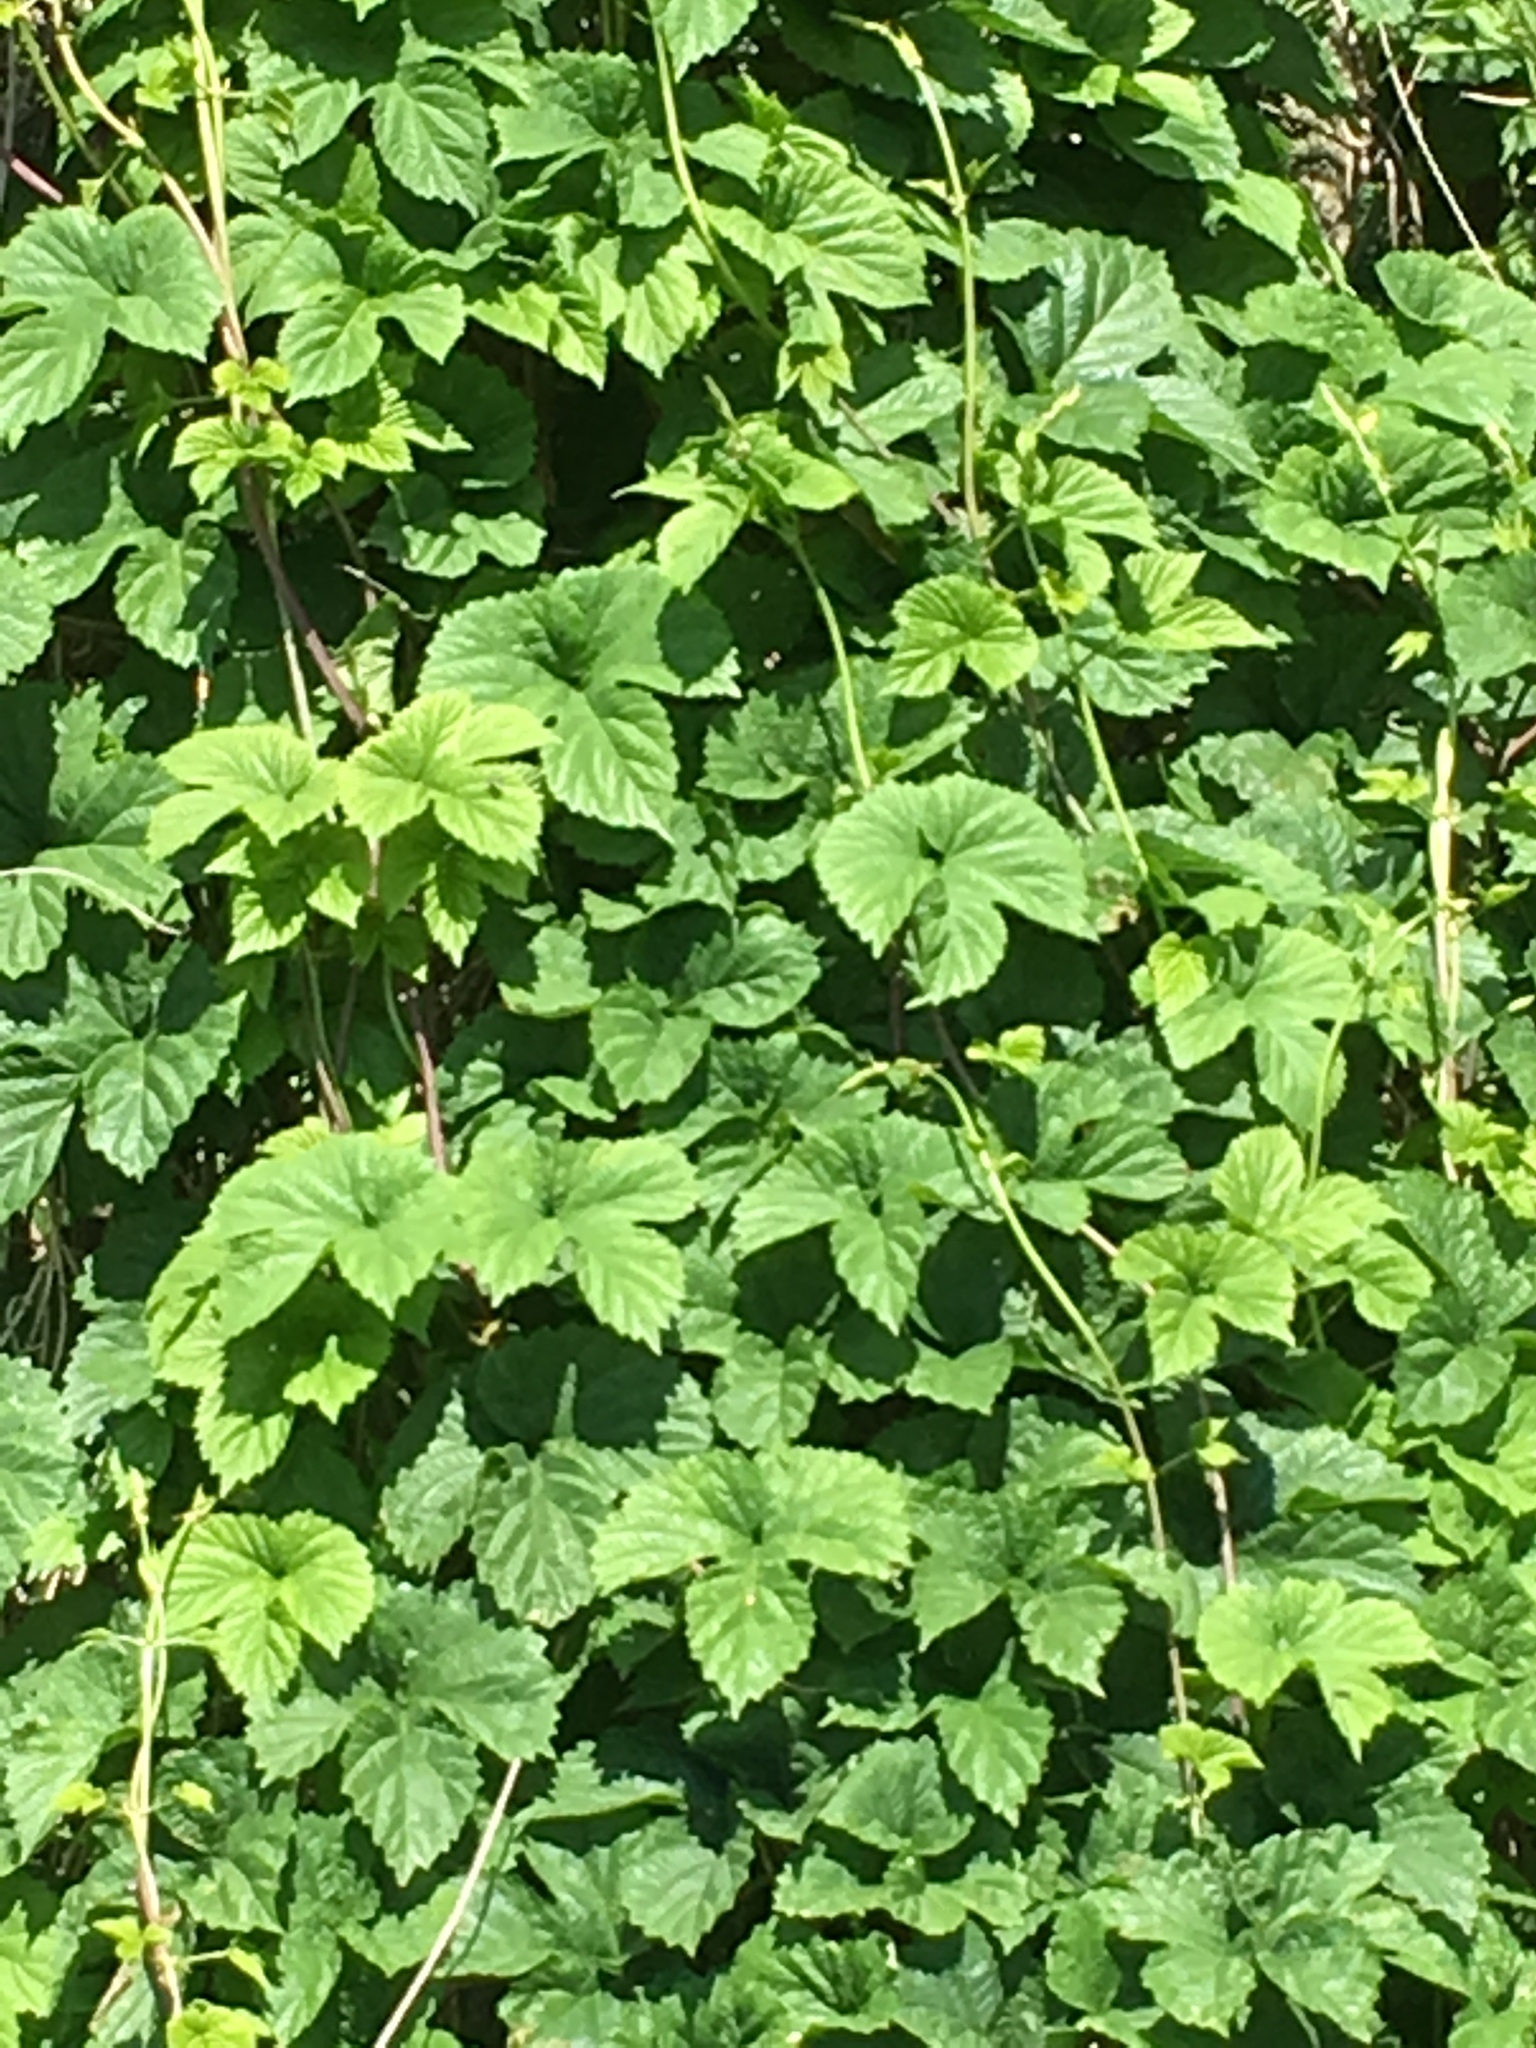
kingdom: Plantae
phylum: Tracheophyta
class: Magnoliopsida
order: Rosales
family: Cannabaceae
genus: Humulus
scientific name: Humulus lupulus
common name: Hop
